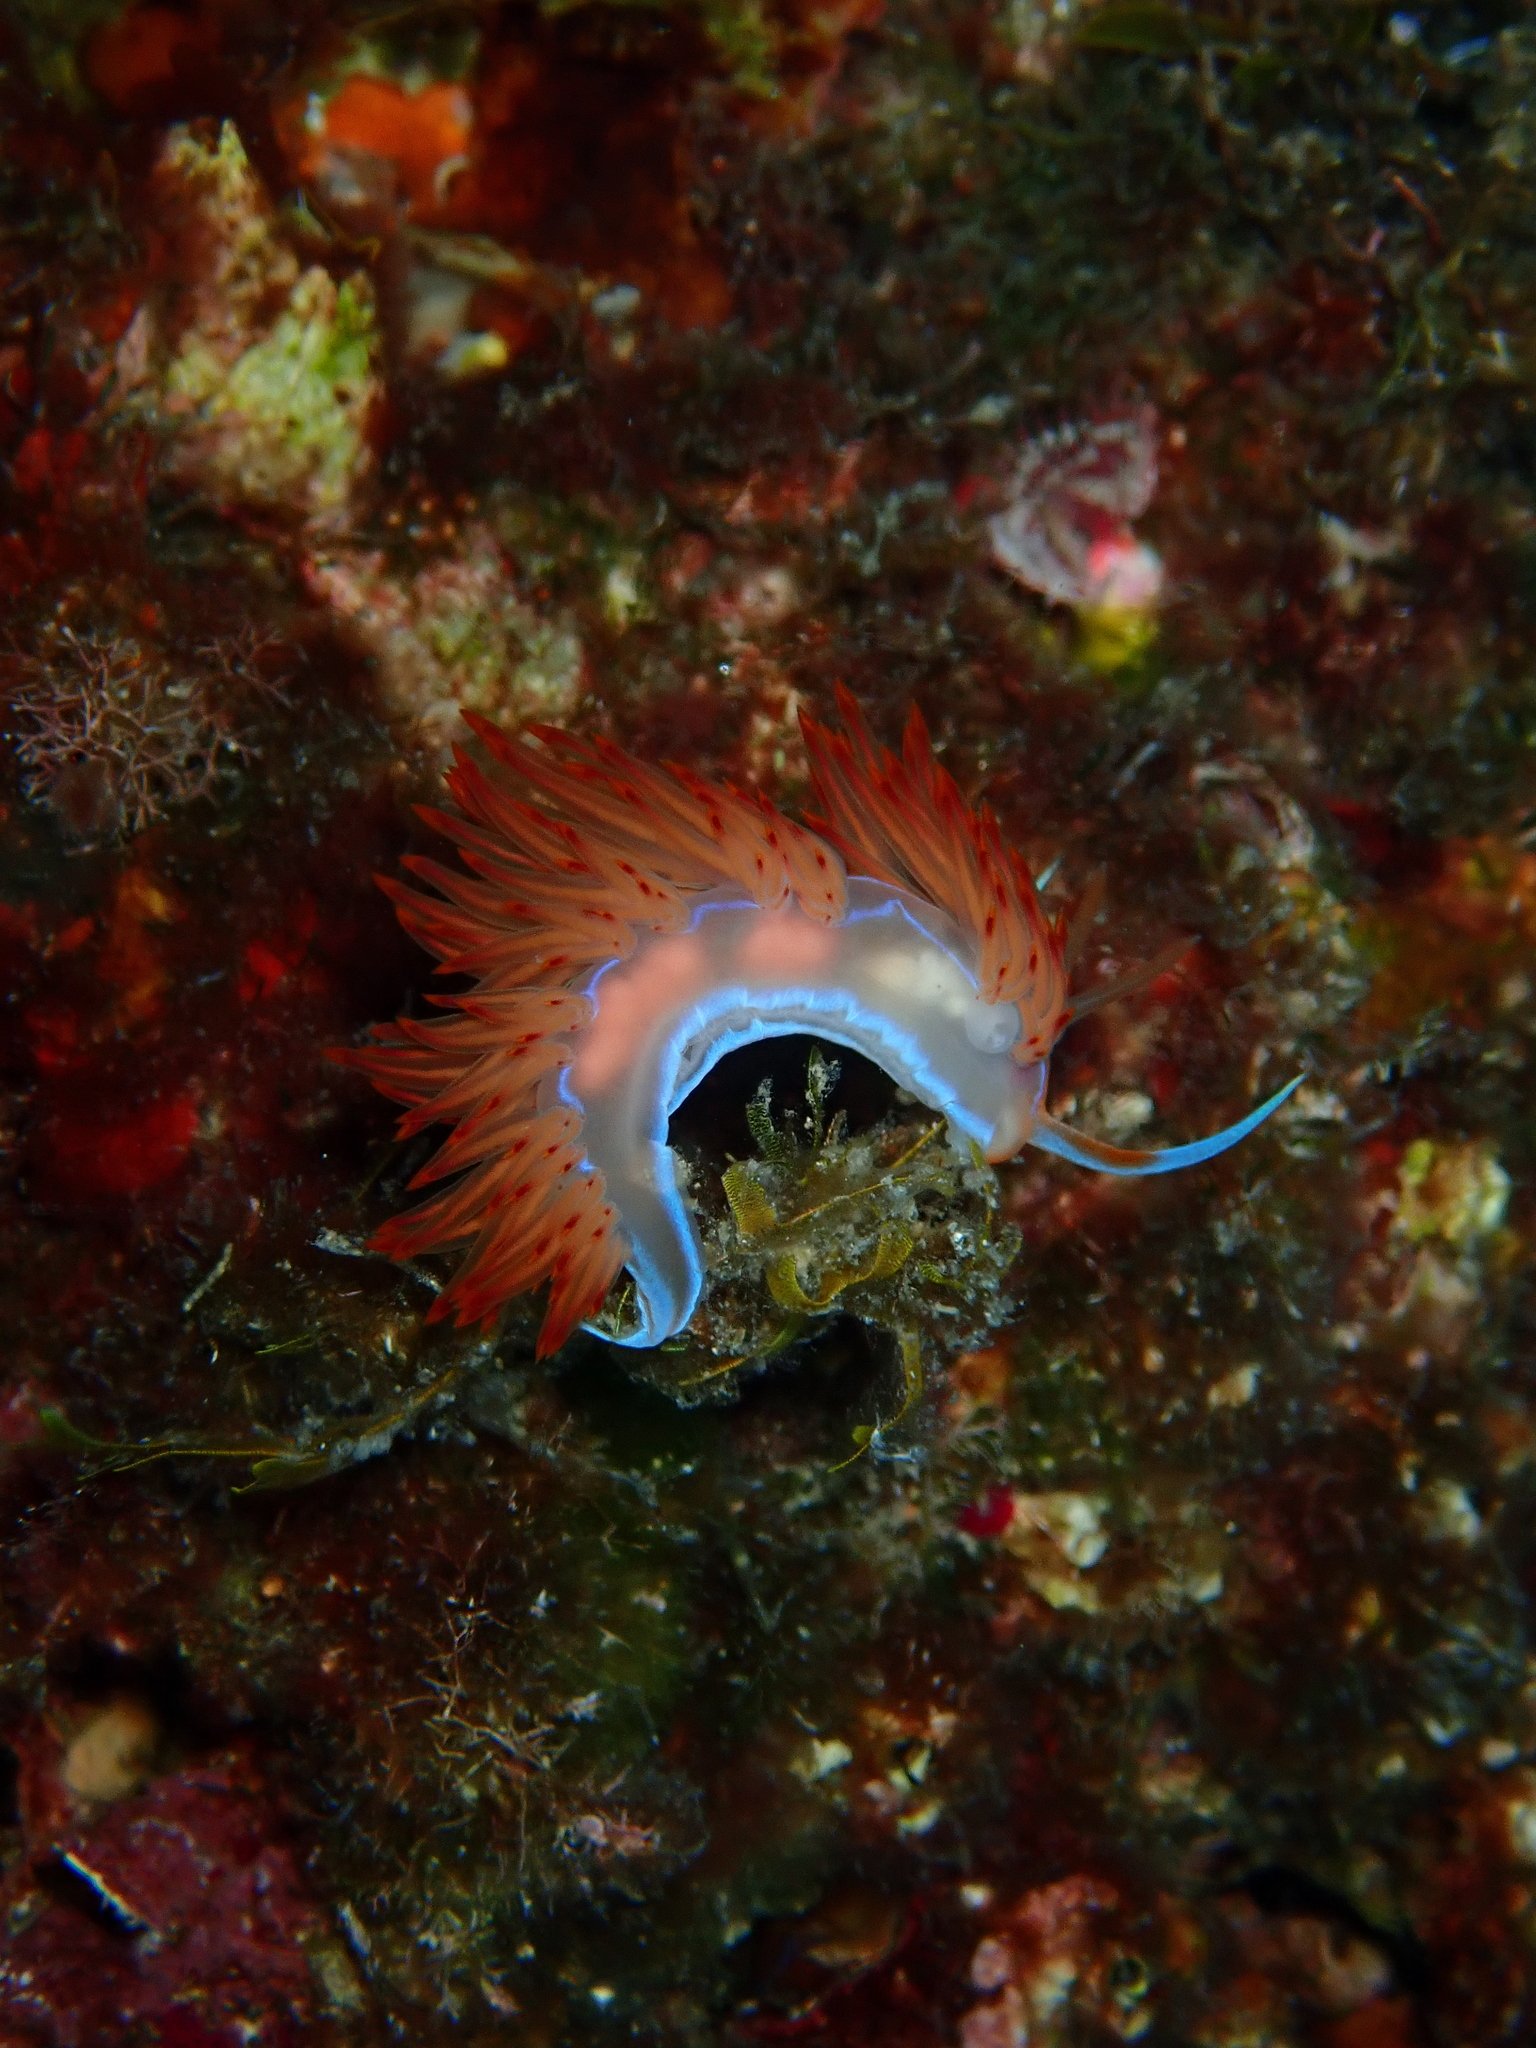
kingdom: Animalia
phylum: Mollusca
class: Gastropoda
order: Nudibranchia
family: Myrrhinidae
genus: Nemesignis
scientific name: Nemesignis banyulensis
